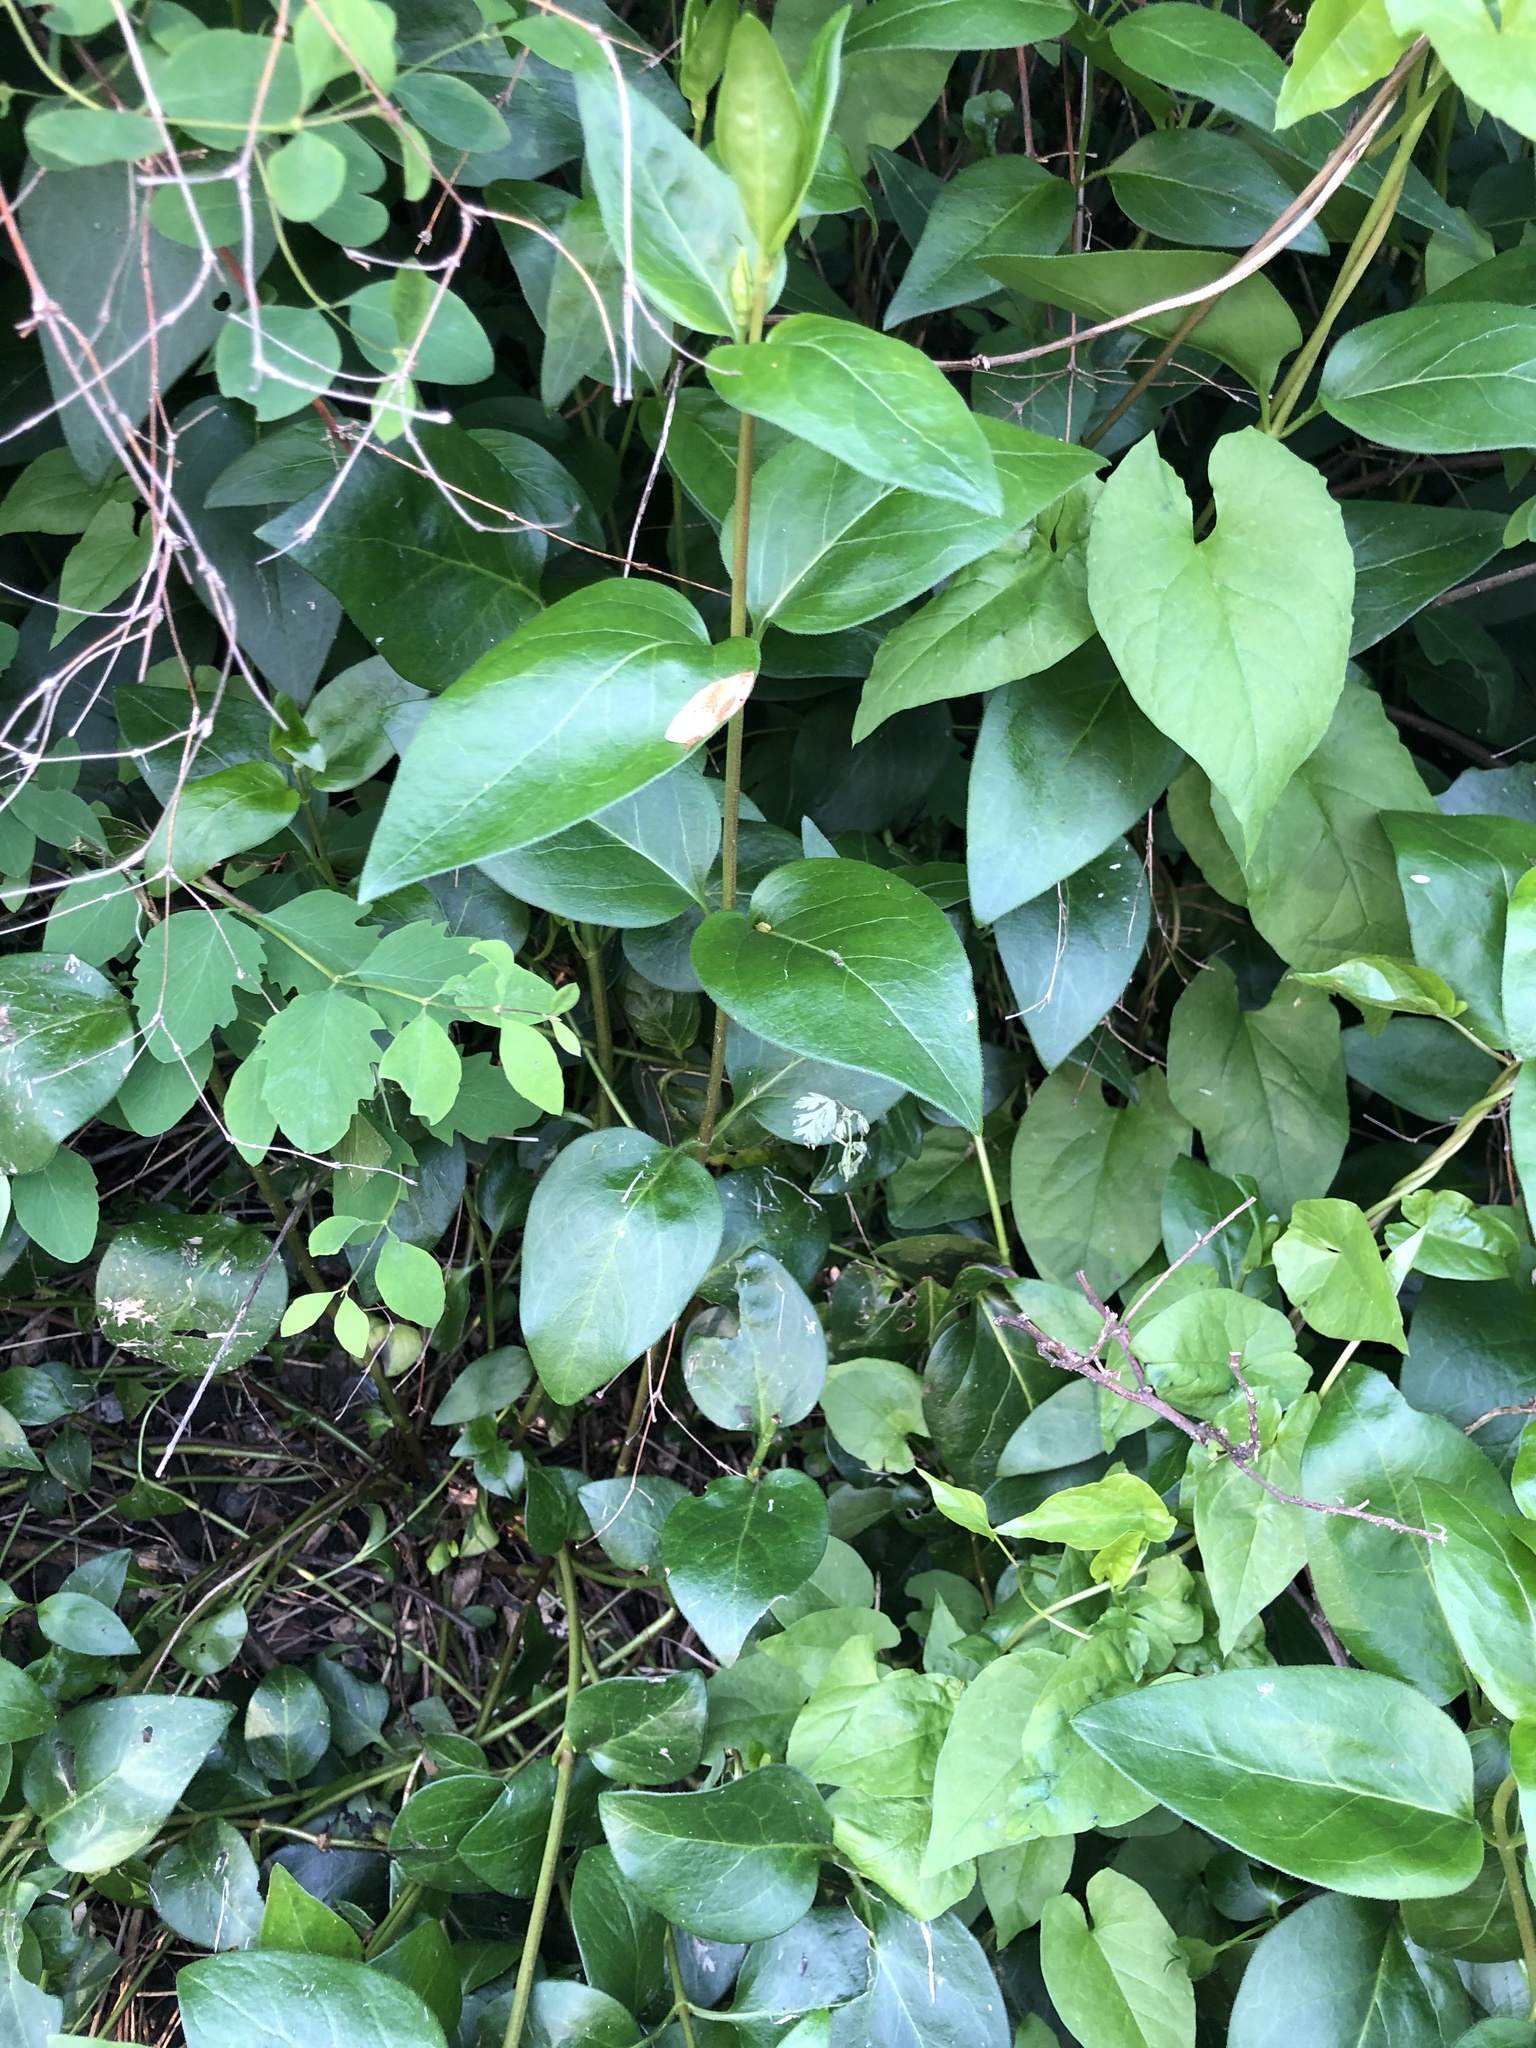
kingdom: Plantae
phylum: Tracheophyta
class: Magnoliopsida
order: Gentianales
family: Apocynaceae
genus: Vinca
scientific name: Vinca major
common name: Greater periwinkle
